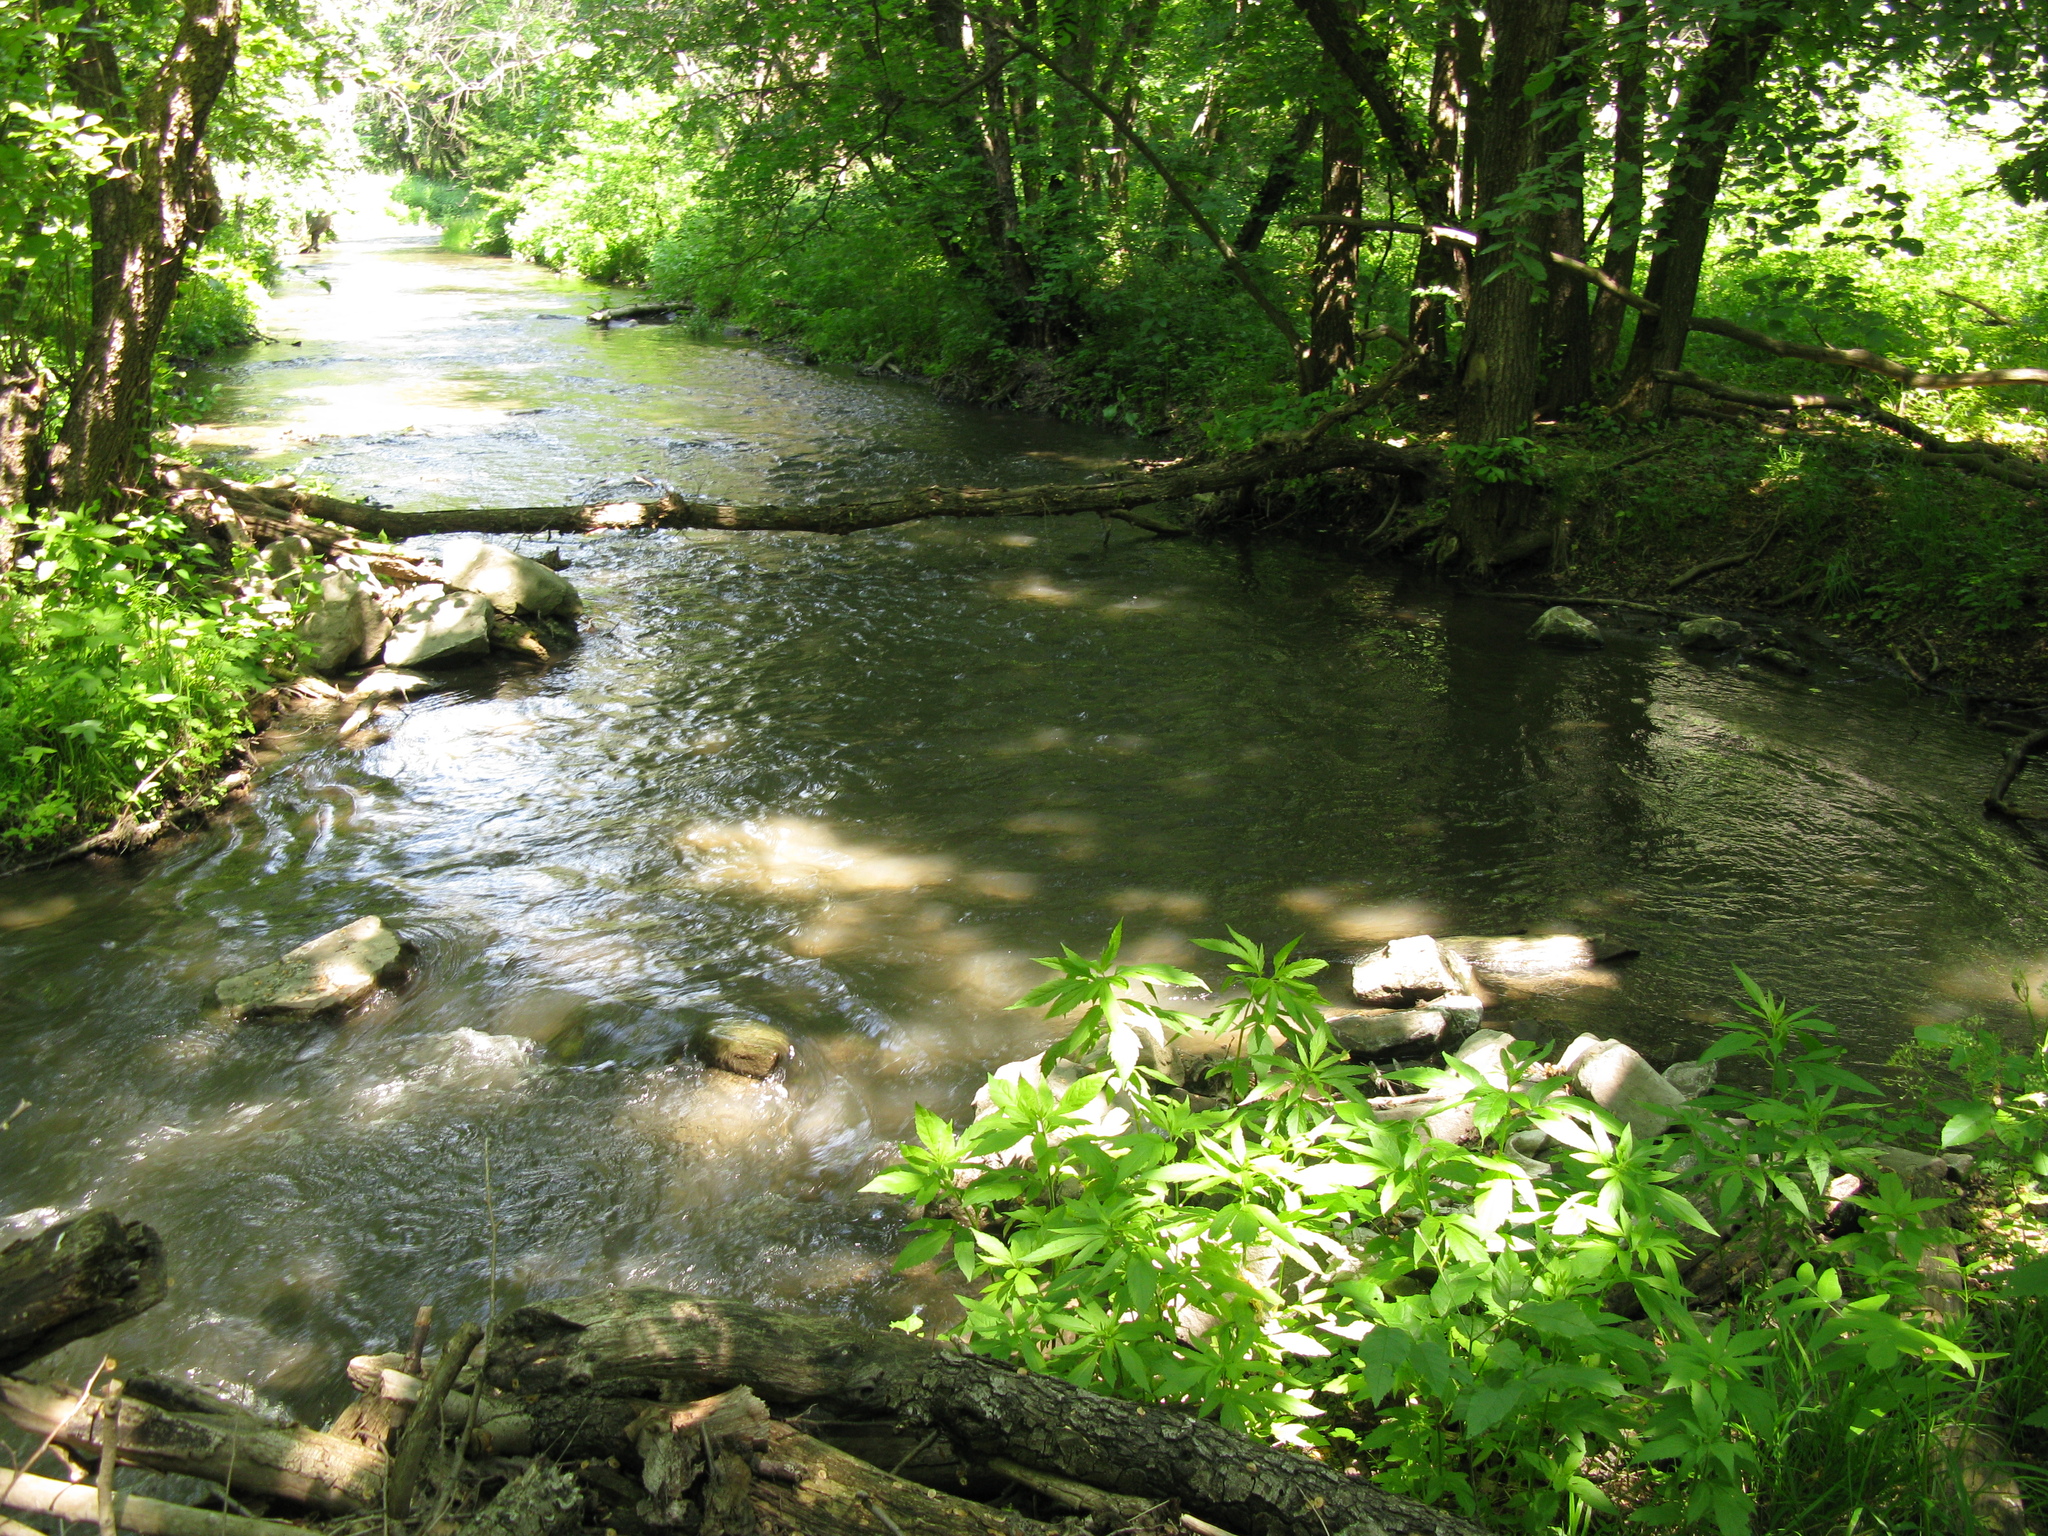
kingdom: Plantae
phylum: Tracheophyta
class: Magnoliopsida
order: Asterales
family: Asteraceae
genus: Eupatorium
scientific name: Eupatorium cannabinum
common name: Hemp-agrimony
